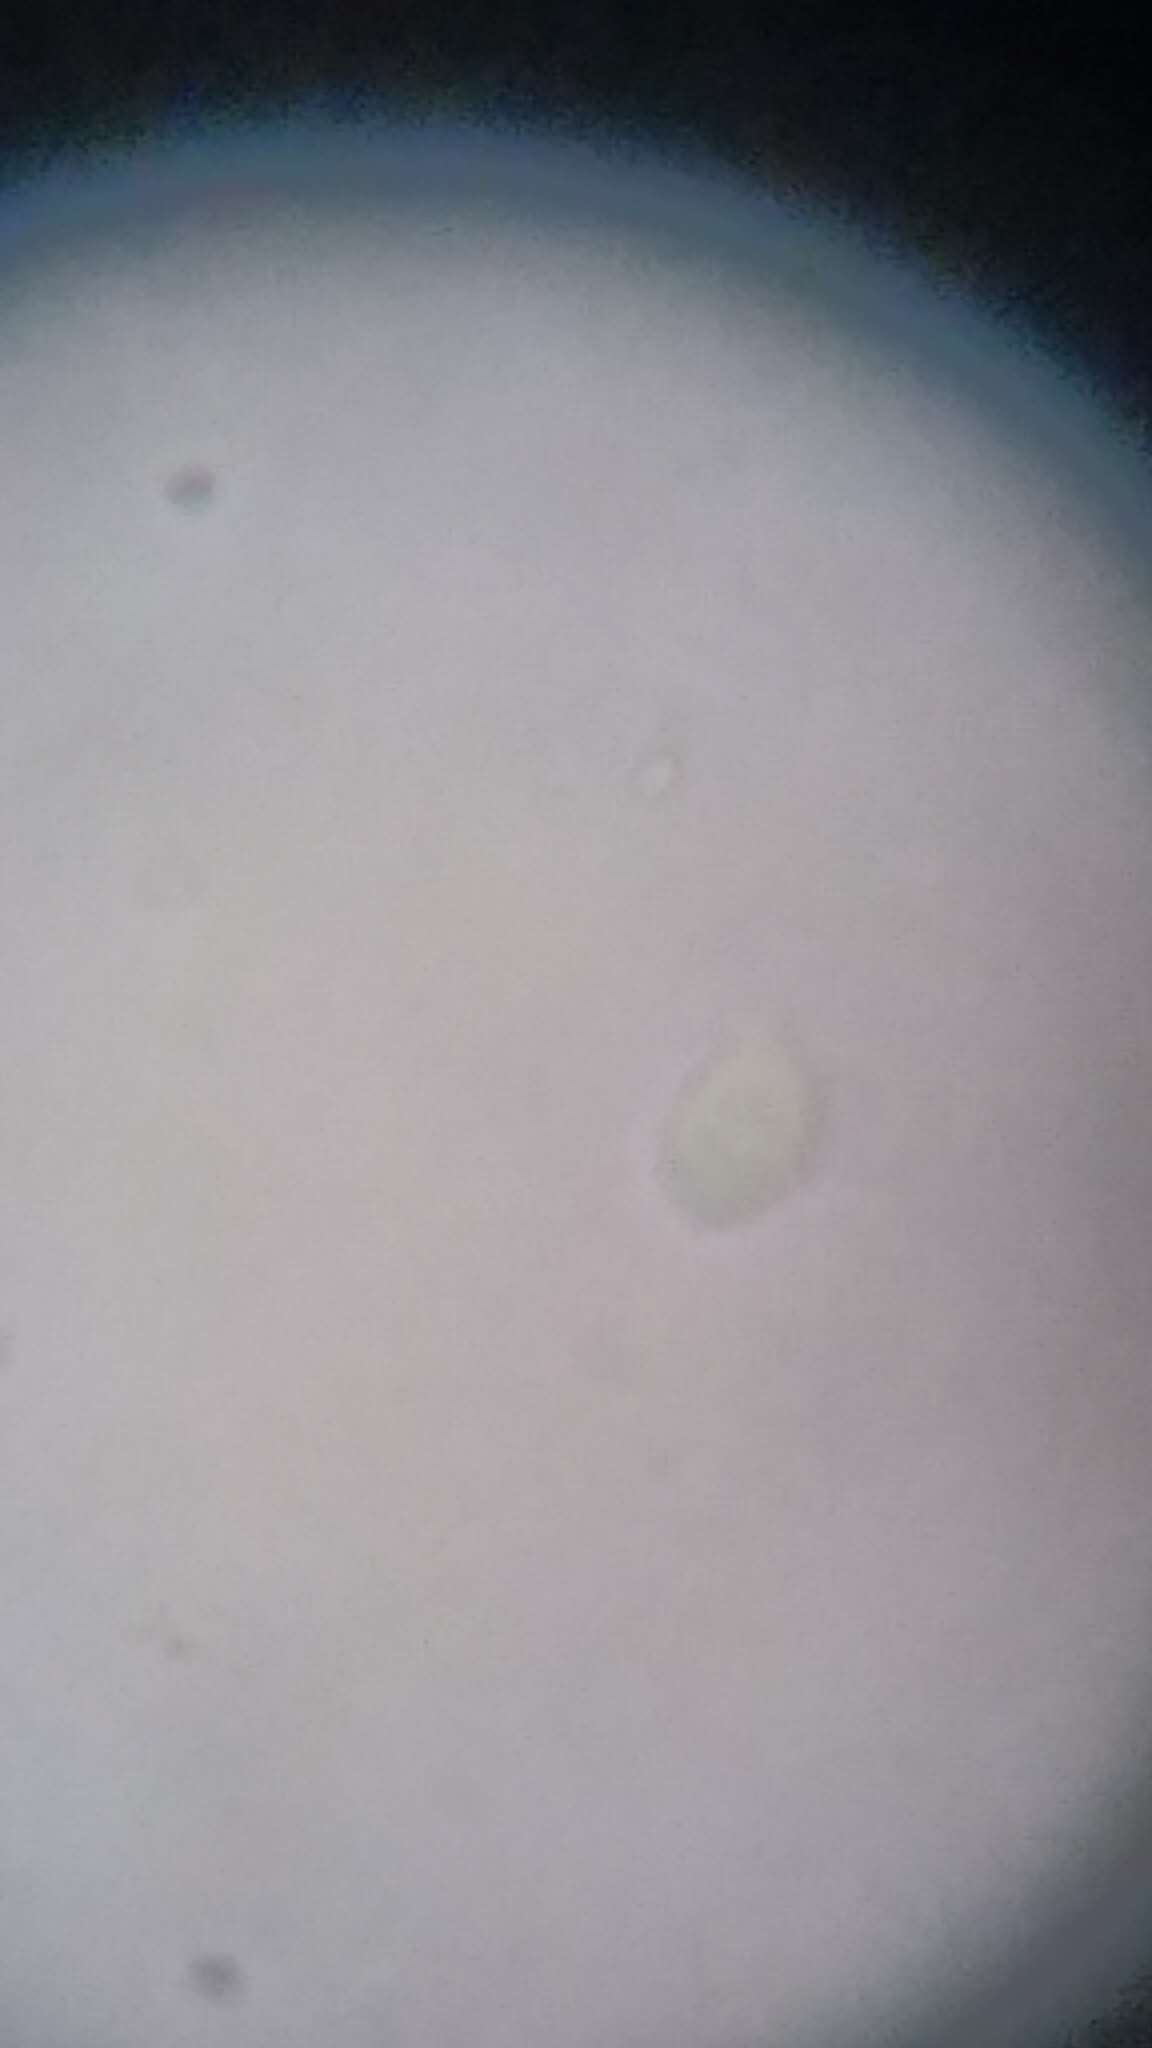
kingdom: Fungi
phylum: Basidiomycota
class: Agaricomycetes
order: Agaricales
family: Mycenaceae
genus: Resinomycena
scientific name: Resinomycena rhododendri
